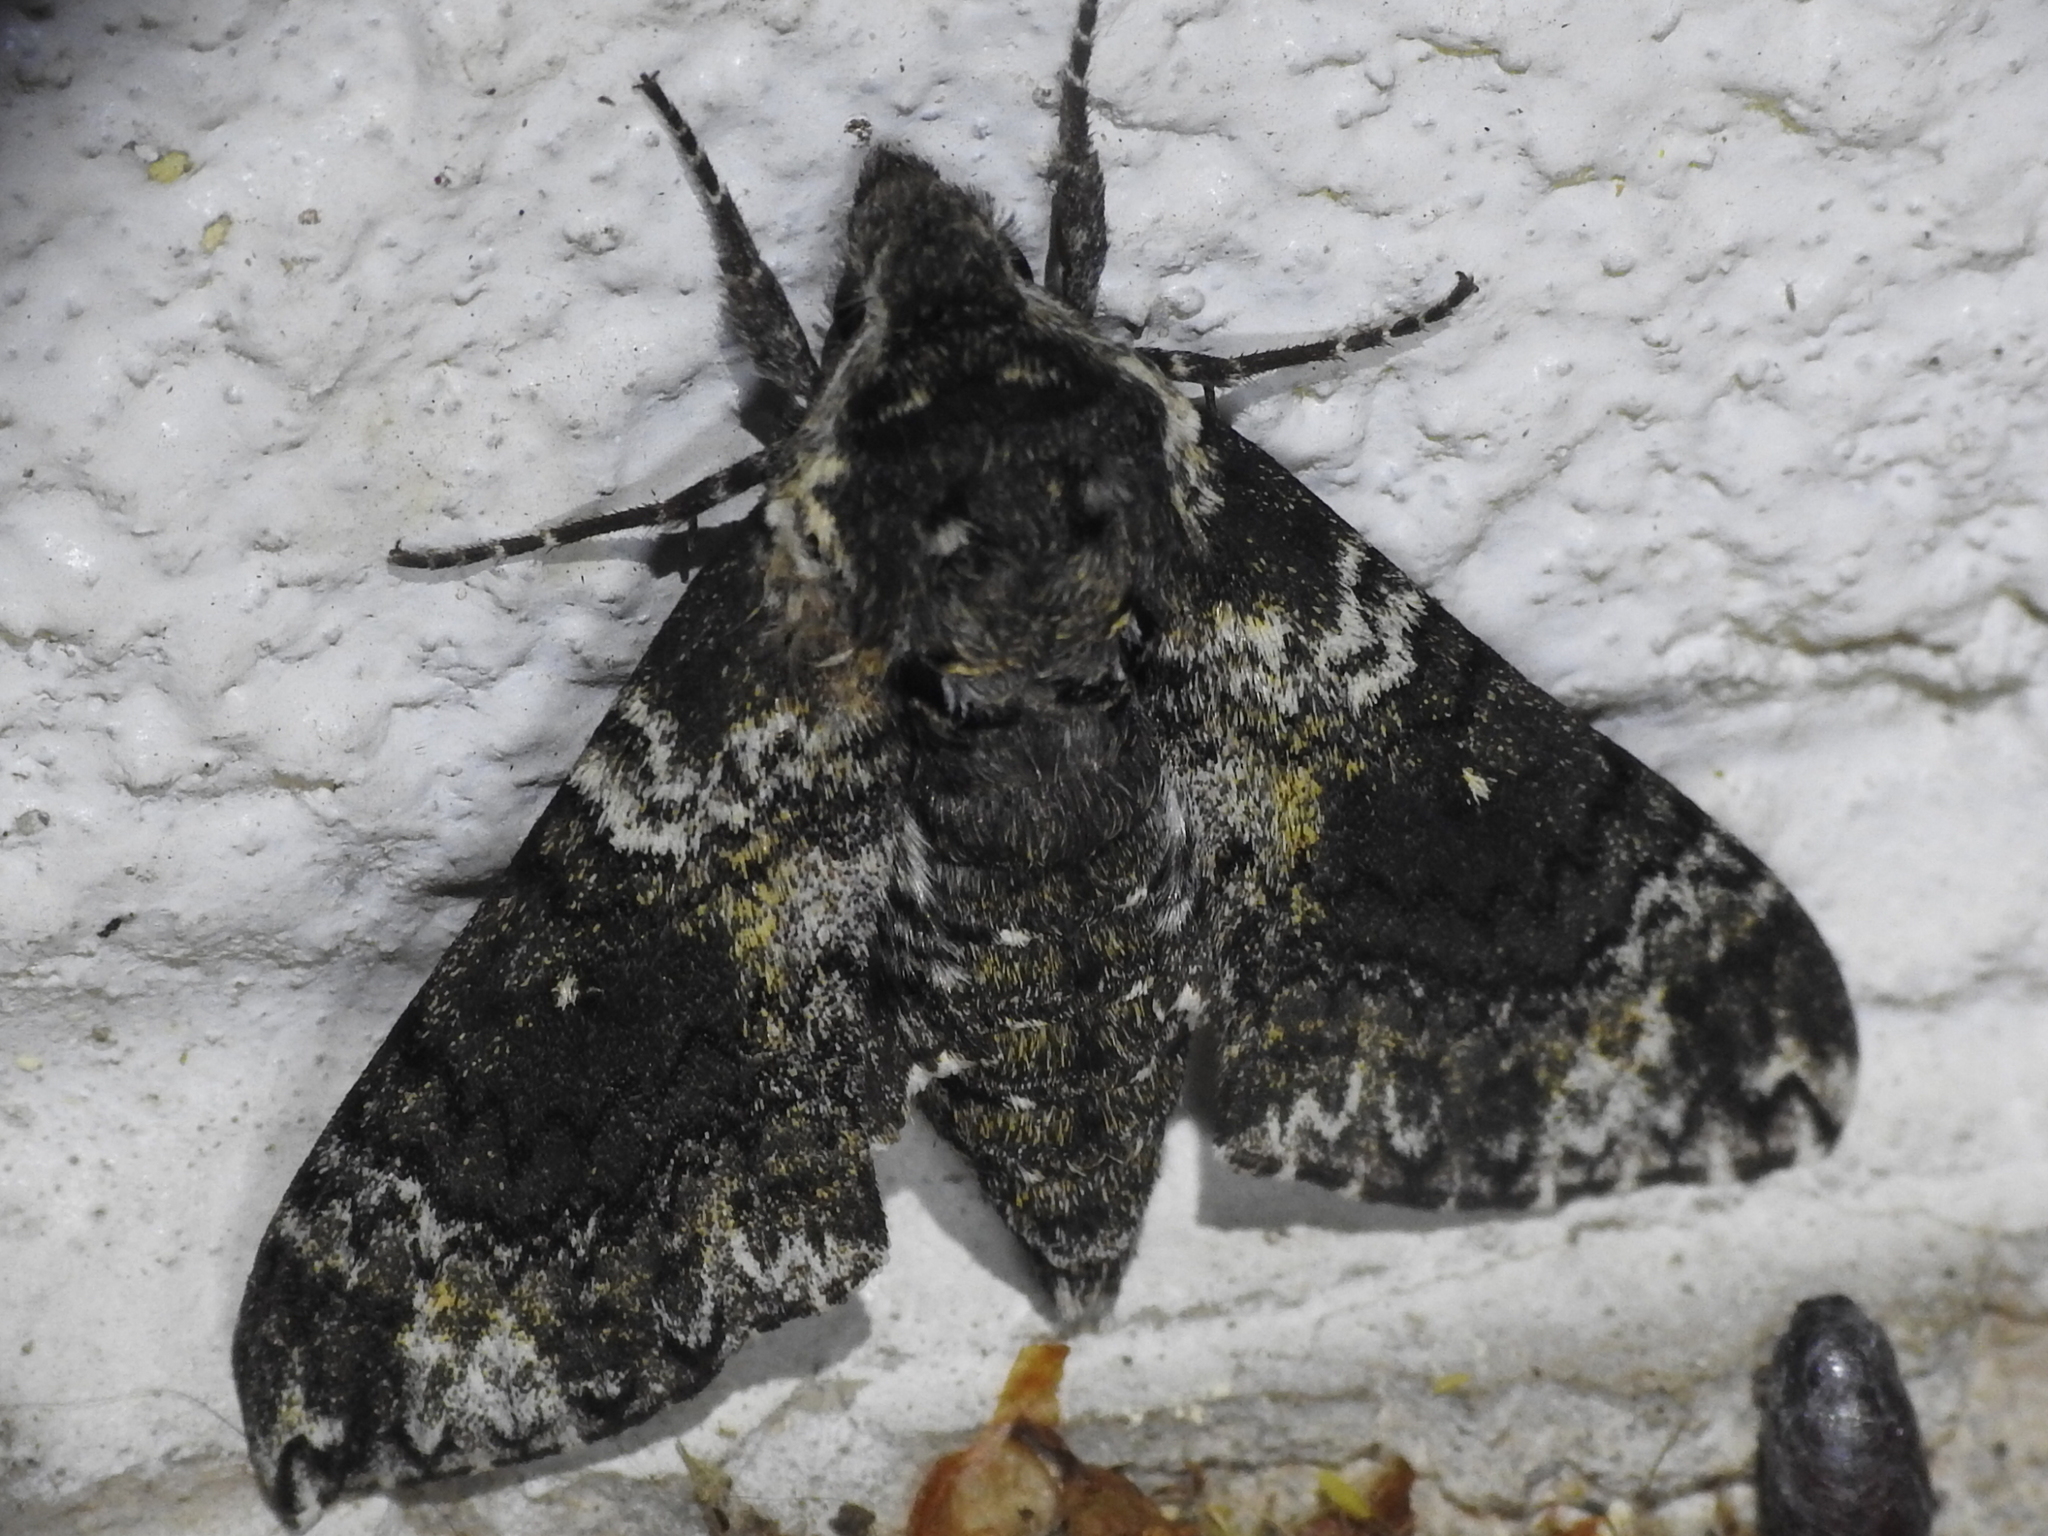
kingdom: Animalia
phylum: Arthropoda
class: Insecta
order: Lepidoptera
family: Sphingidae
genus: Dolba
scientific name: Dolba hyloeus
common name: Pawpaw sphinx
